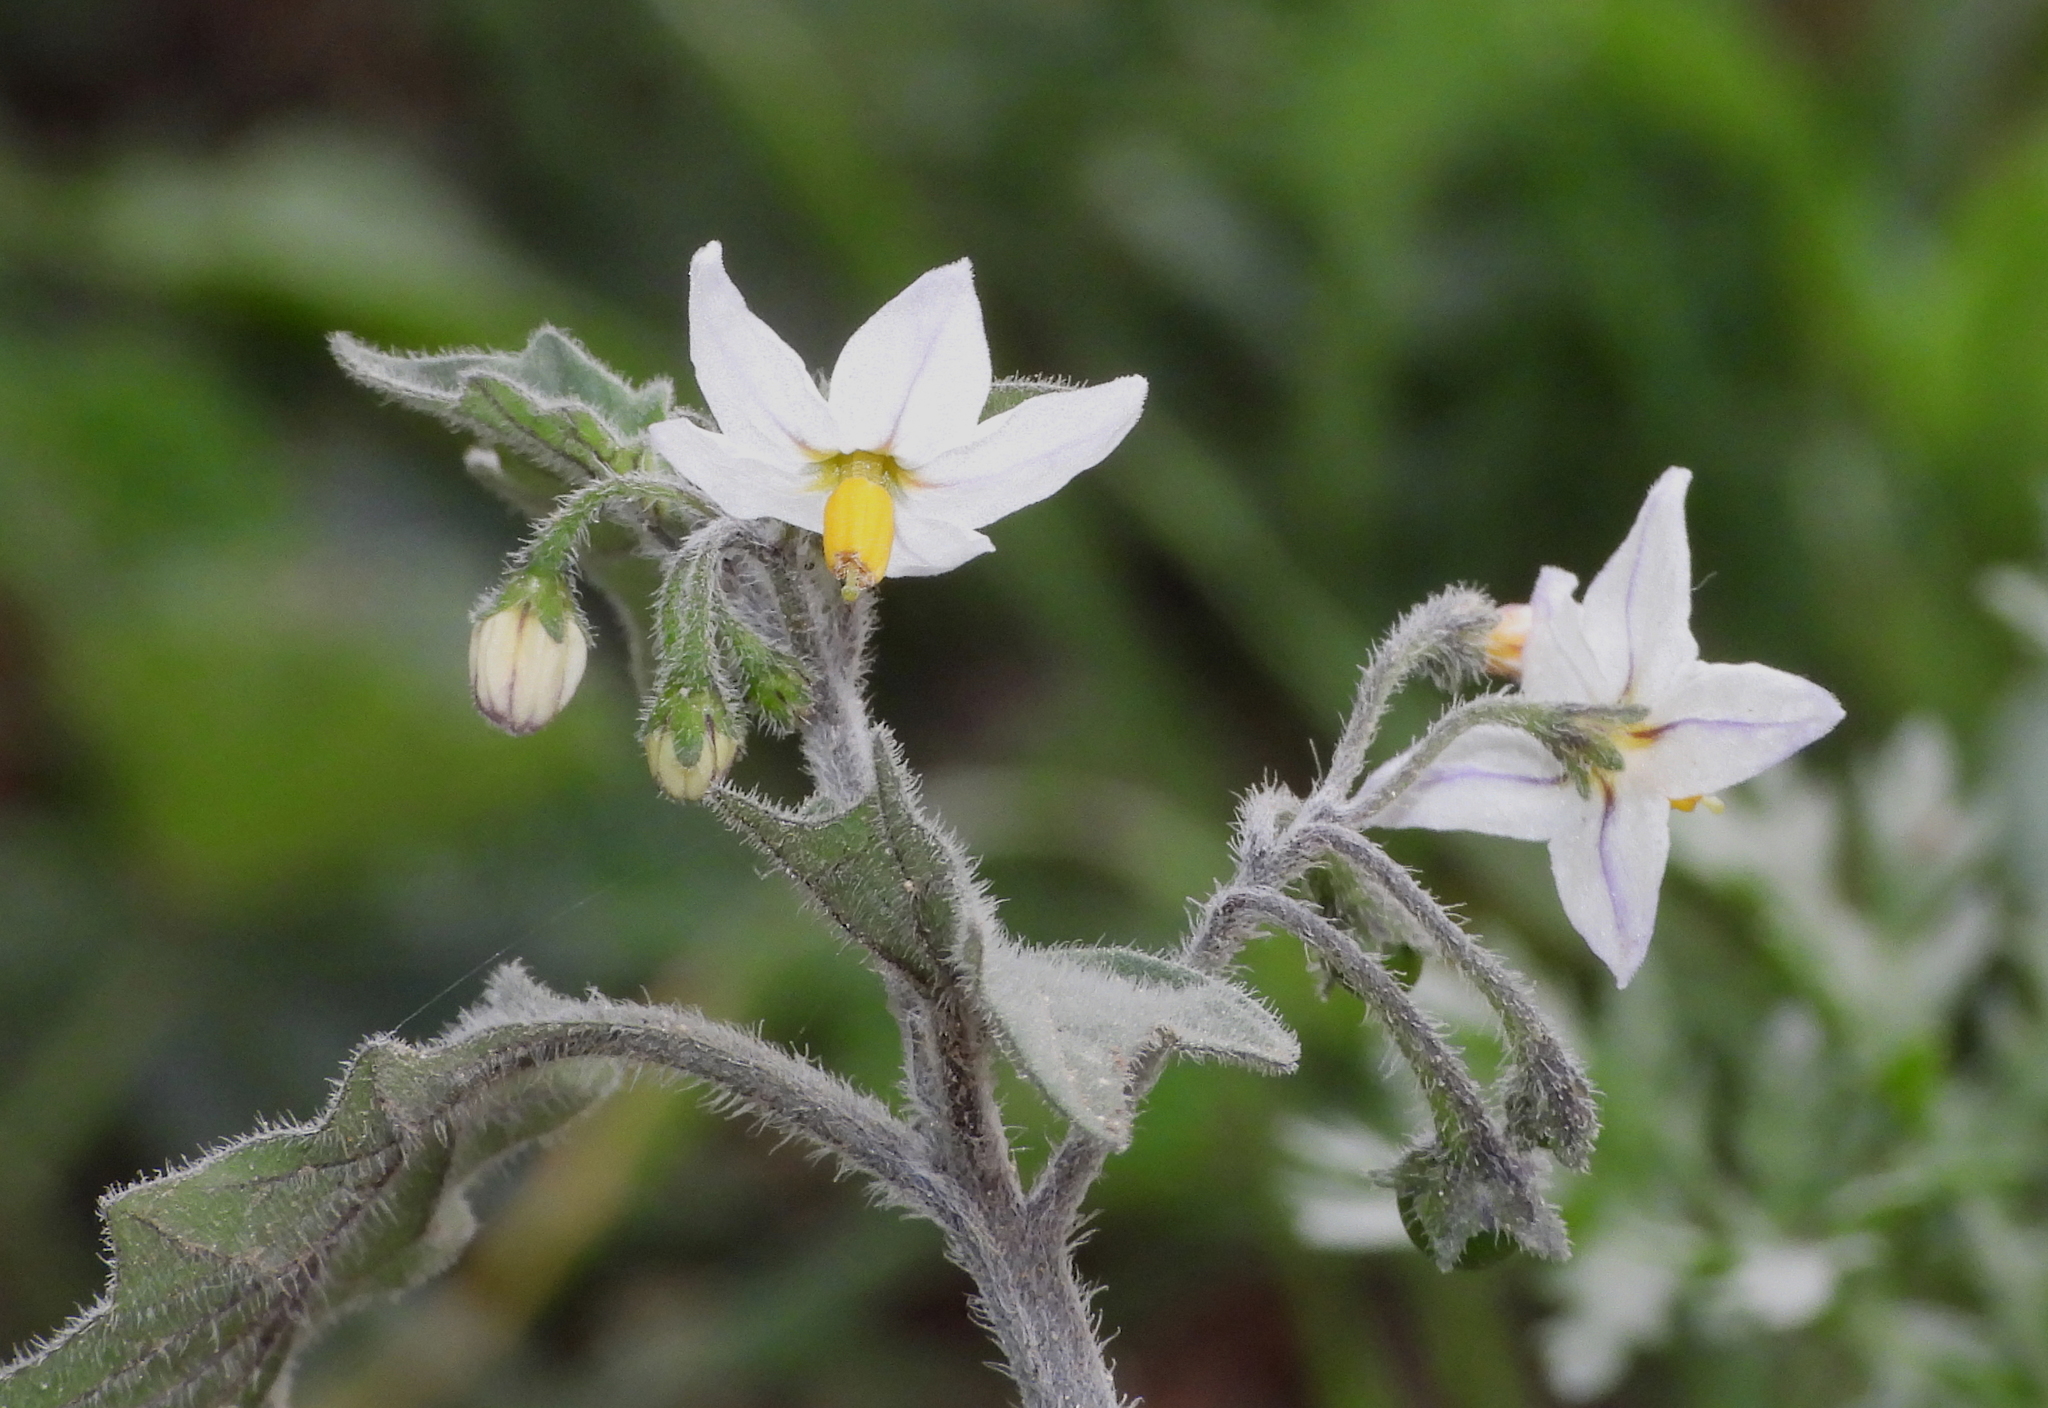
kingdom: Plantae
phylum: Tracheophyta
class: Magnoliopsida
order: Solanales
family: Solanaceae
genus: Solanum
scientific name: Solanum villosum
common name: Red nightshade
